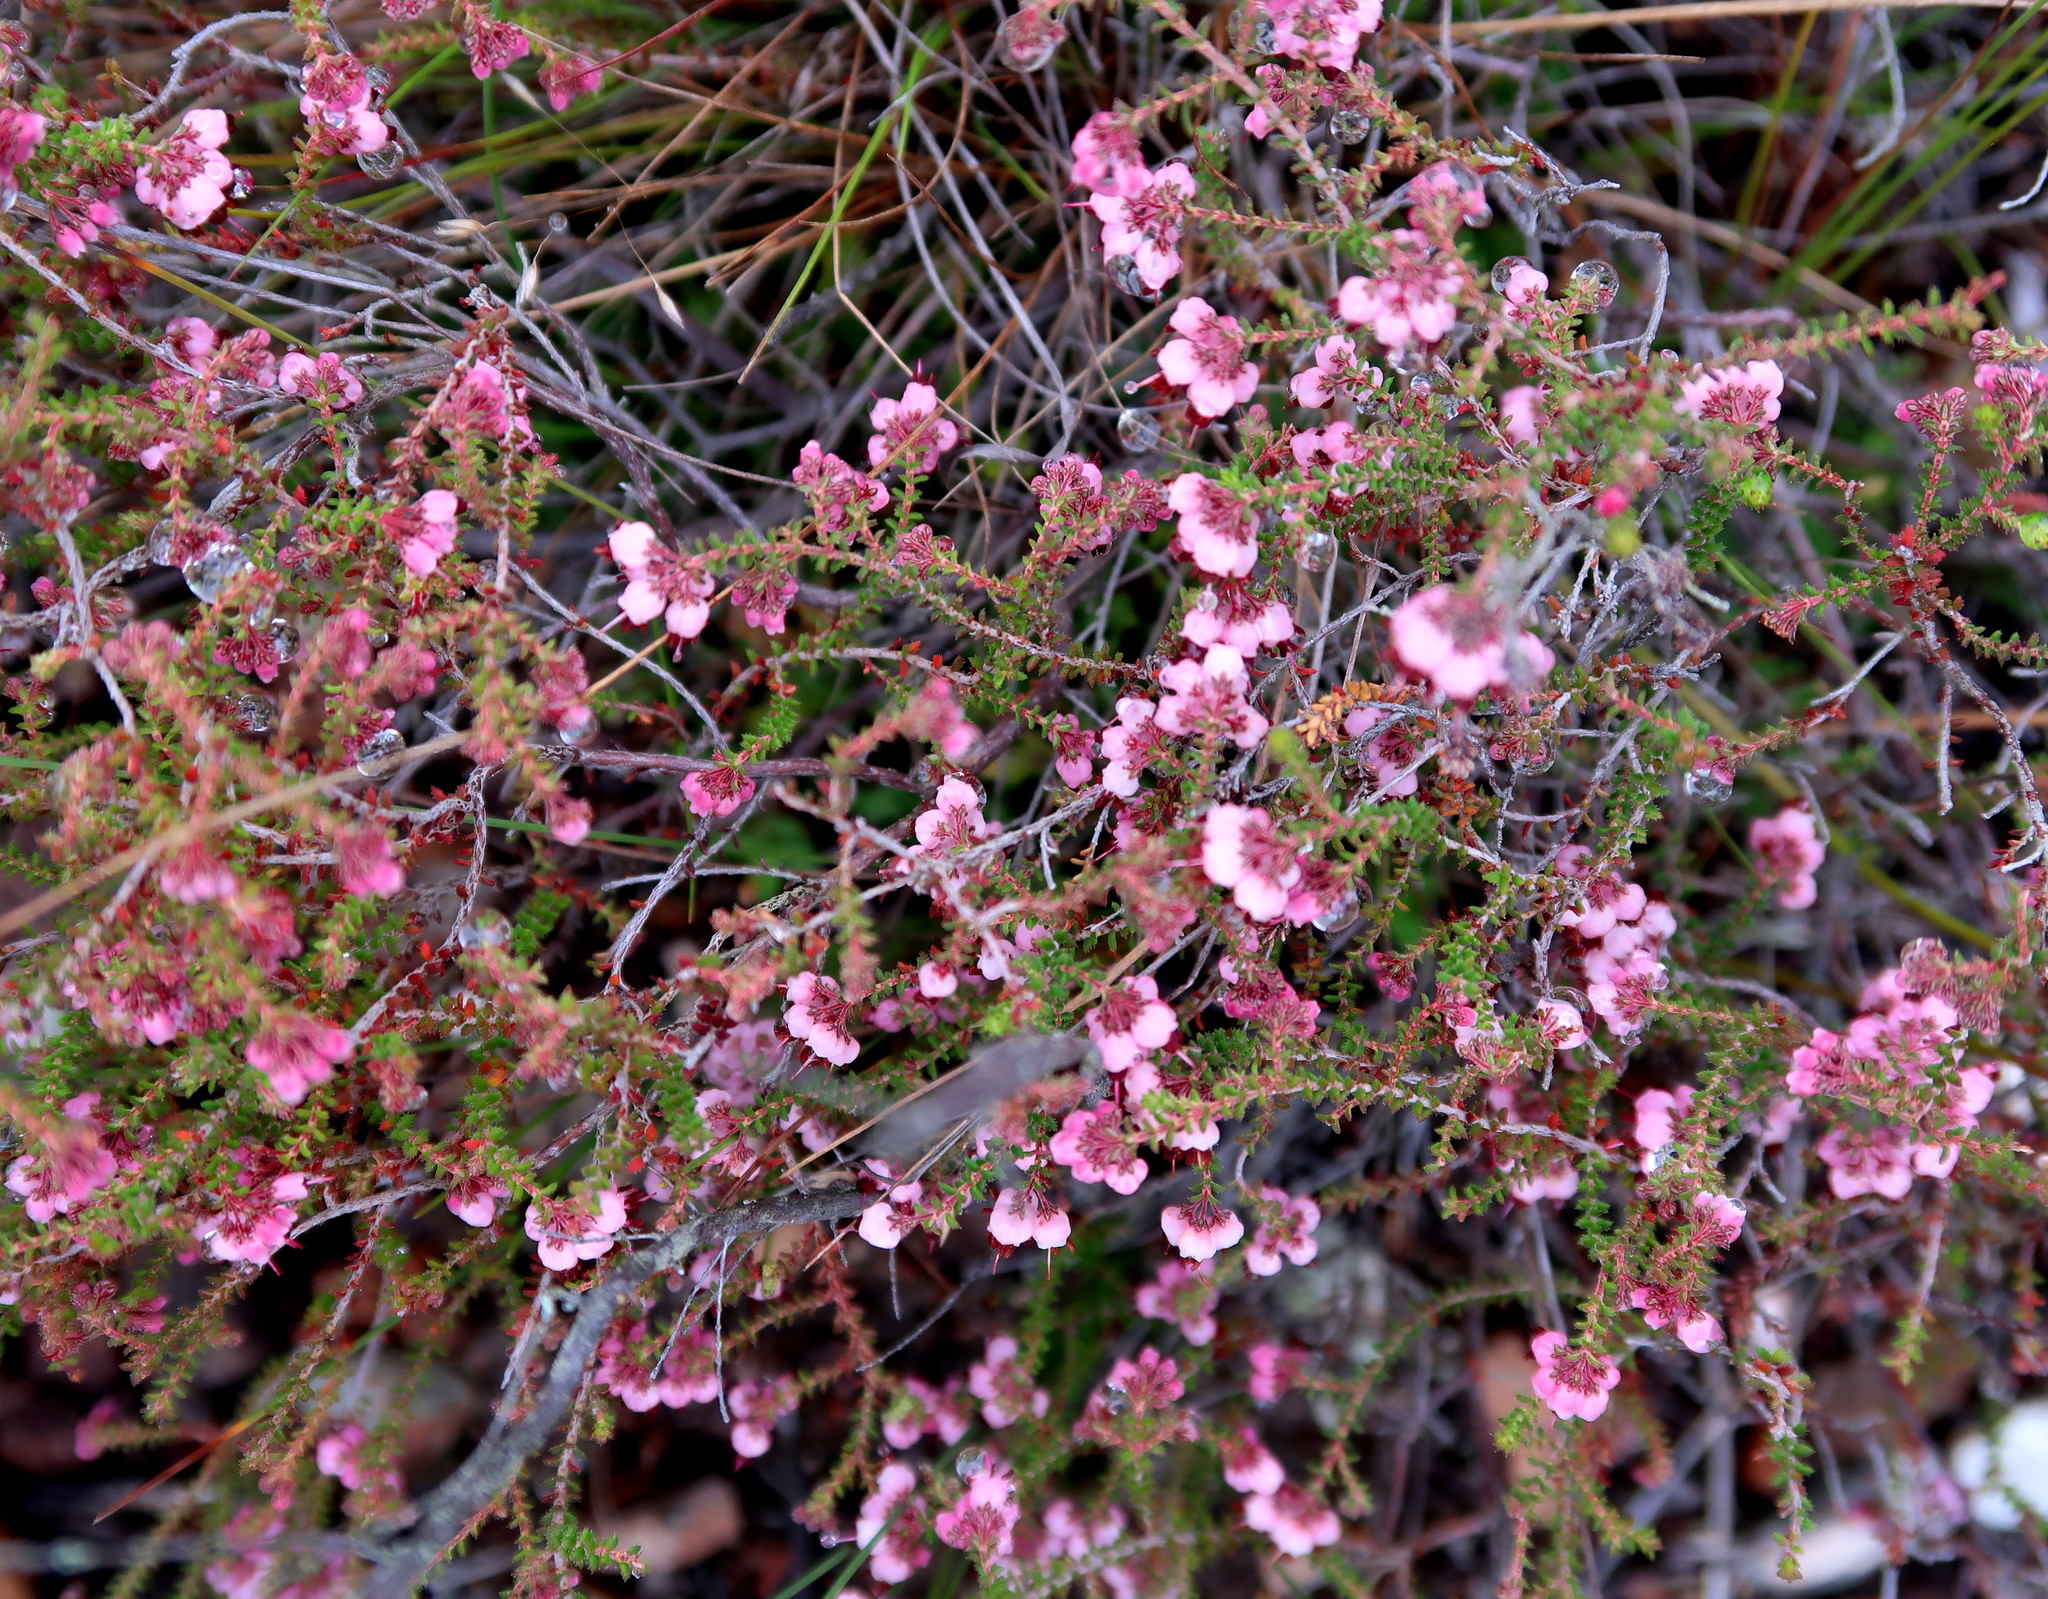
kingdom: Plantae
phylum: Tracheophyta
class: Magnoliopsida
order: Ericales
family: Ericaceae
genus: Erica
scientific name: Erica brachycentra
